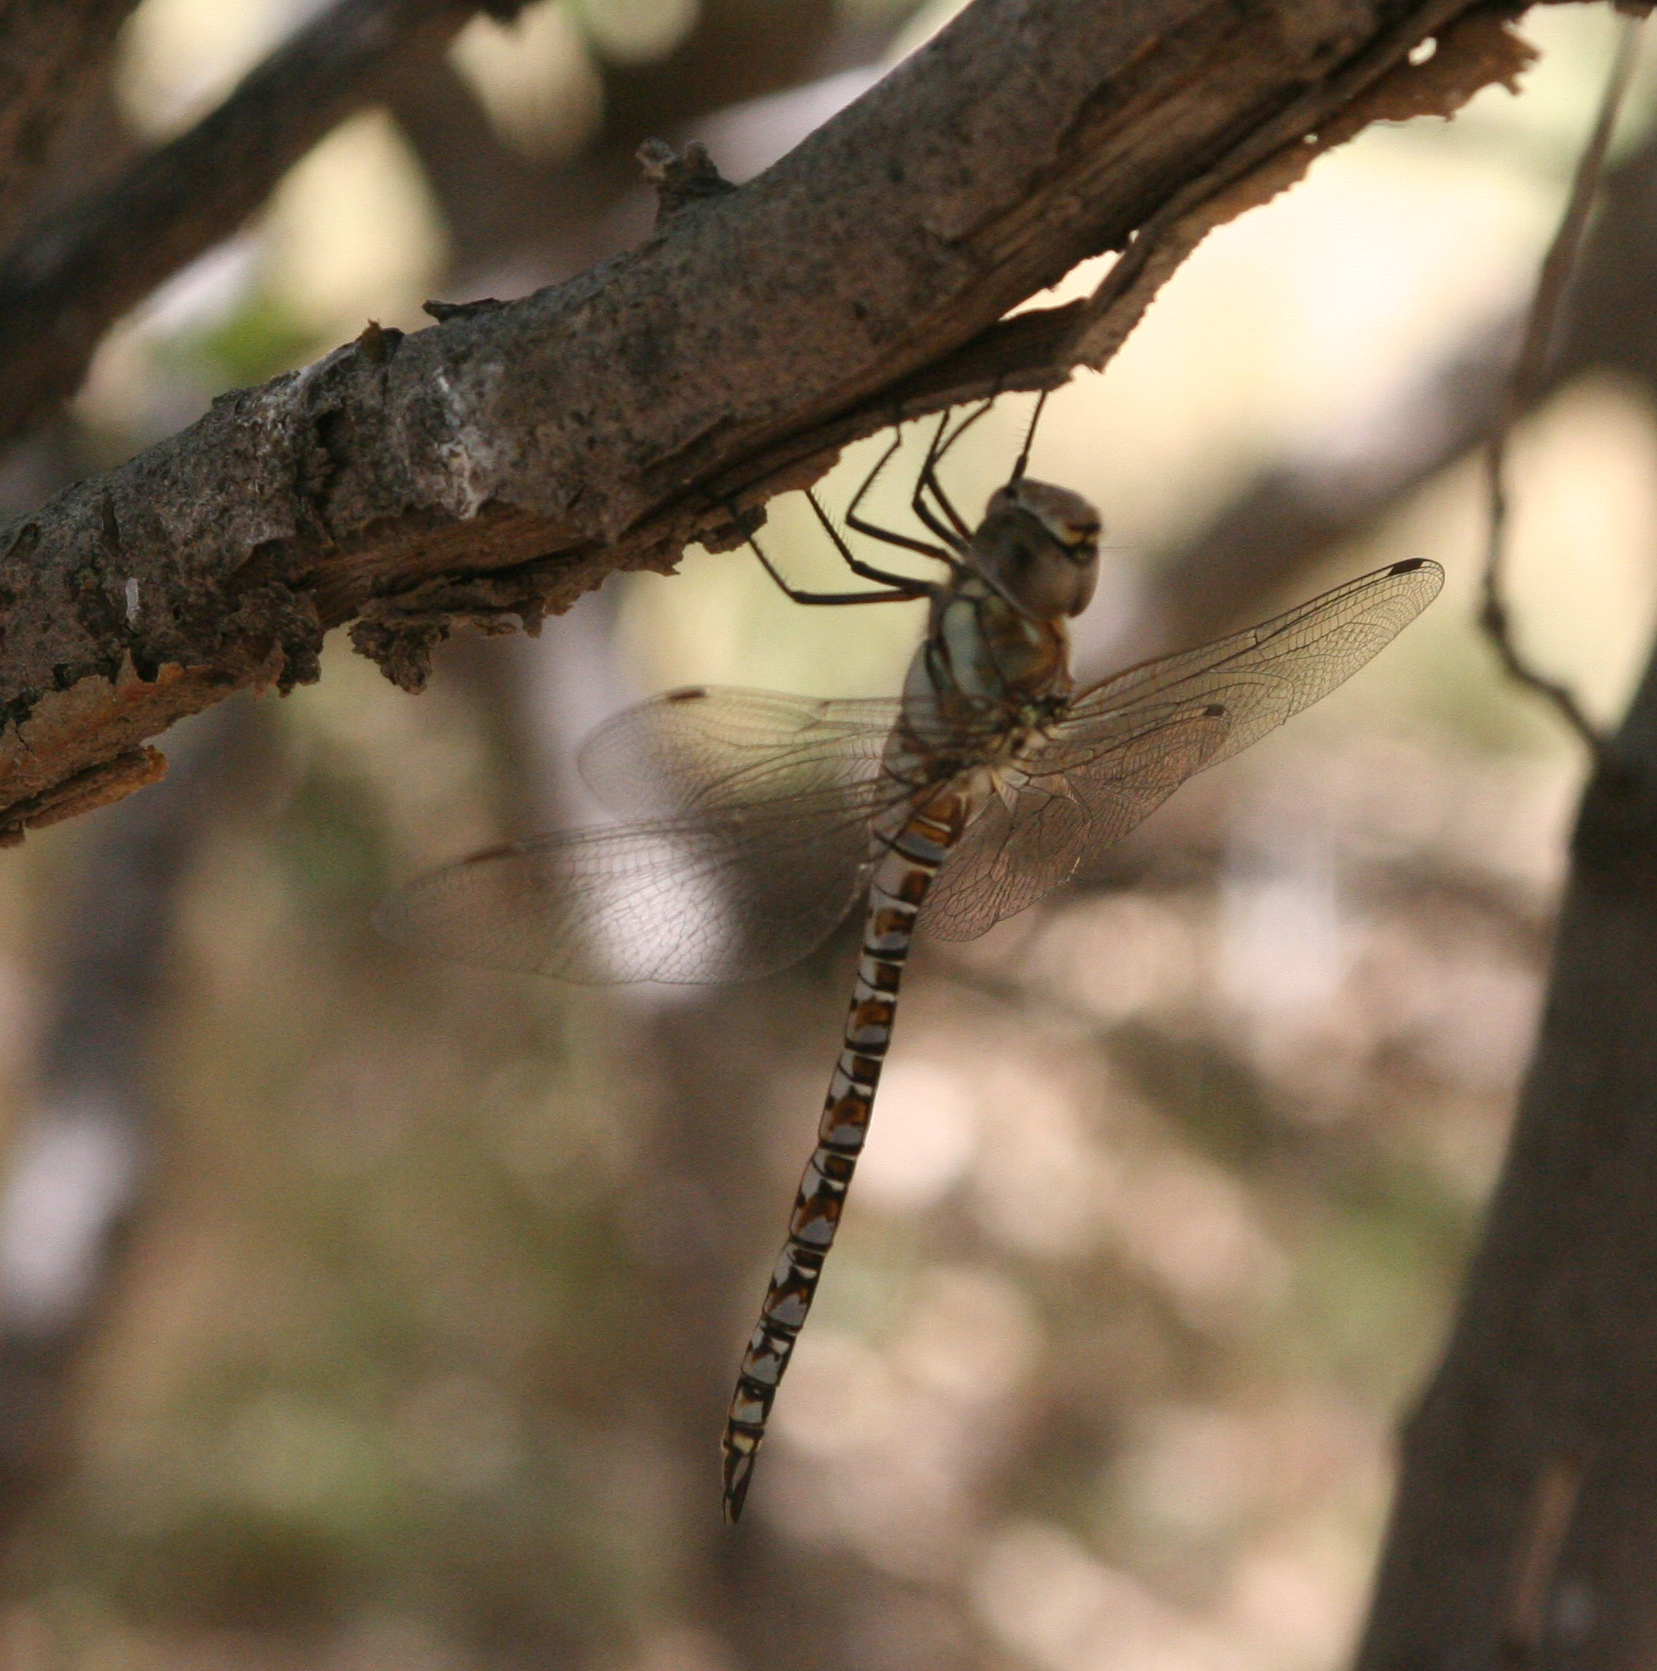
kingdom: Animalia
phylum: Arthropoda
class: Insecta
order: Odonata
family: Aeshnidae
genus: Aeshna
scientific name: Aeshna mixta
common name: Migrant hawker
